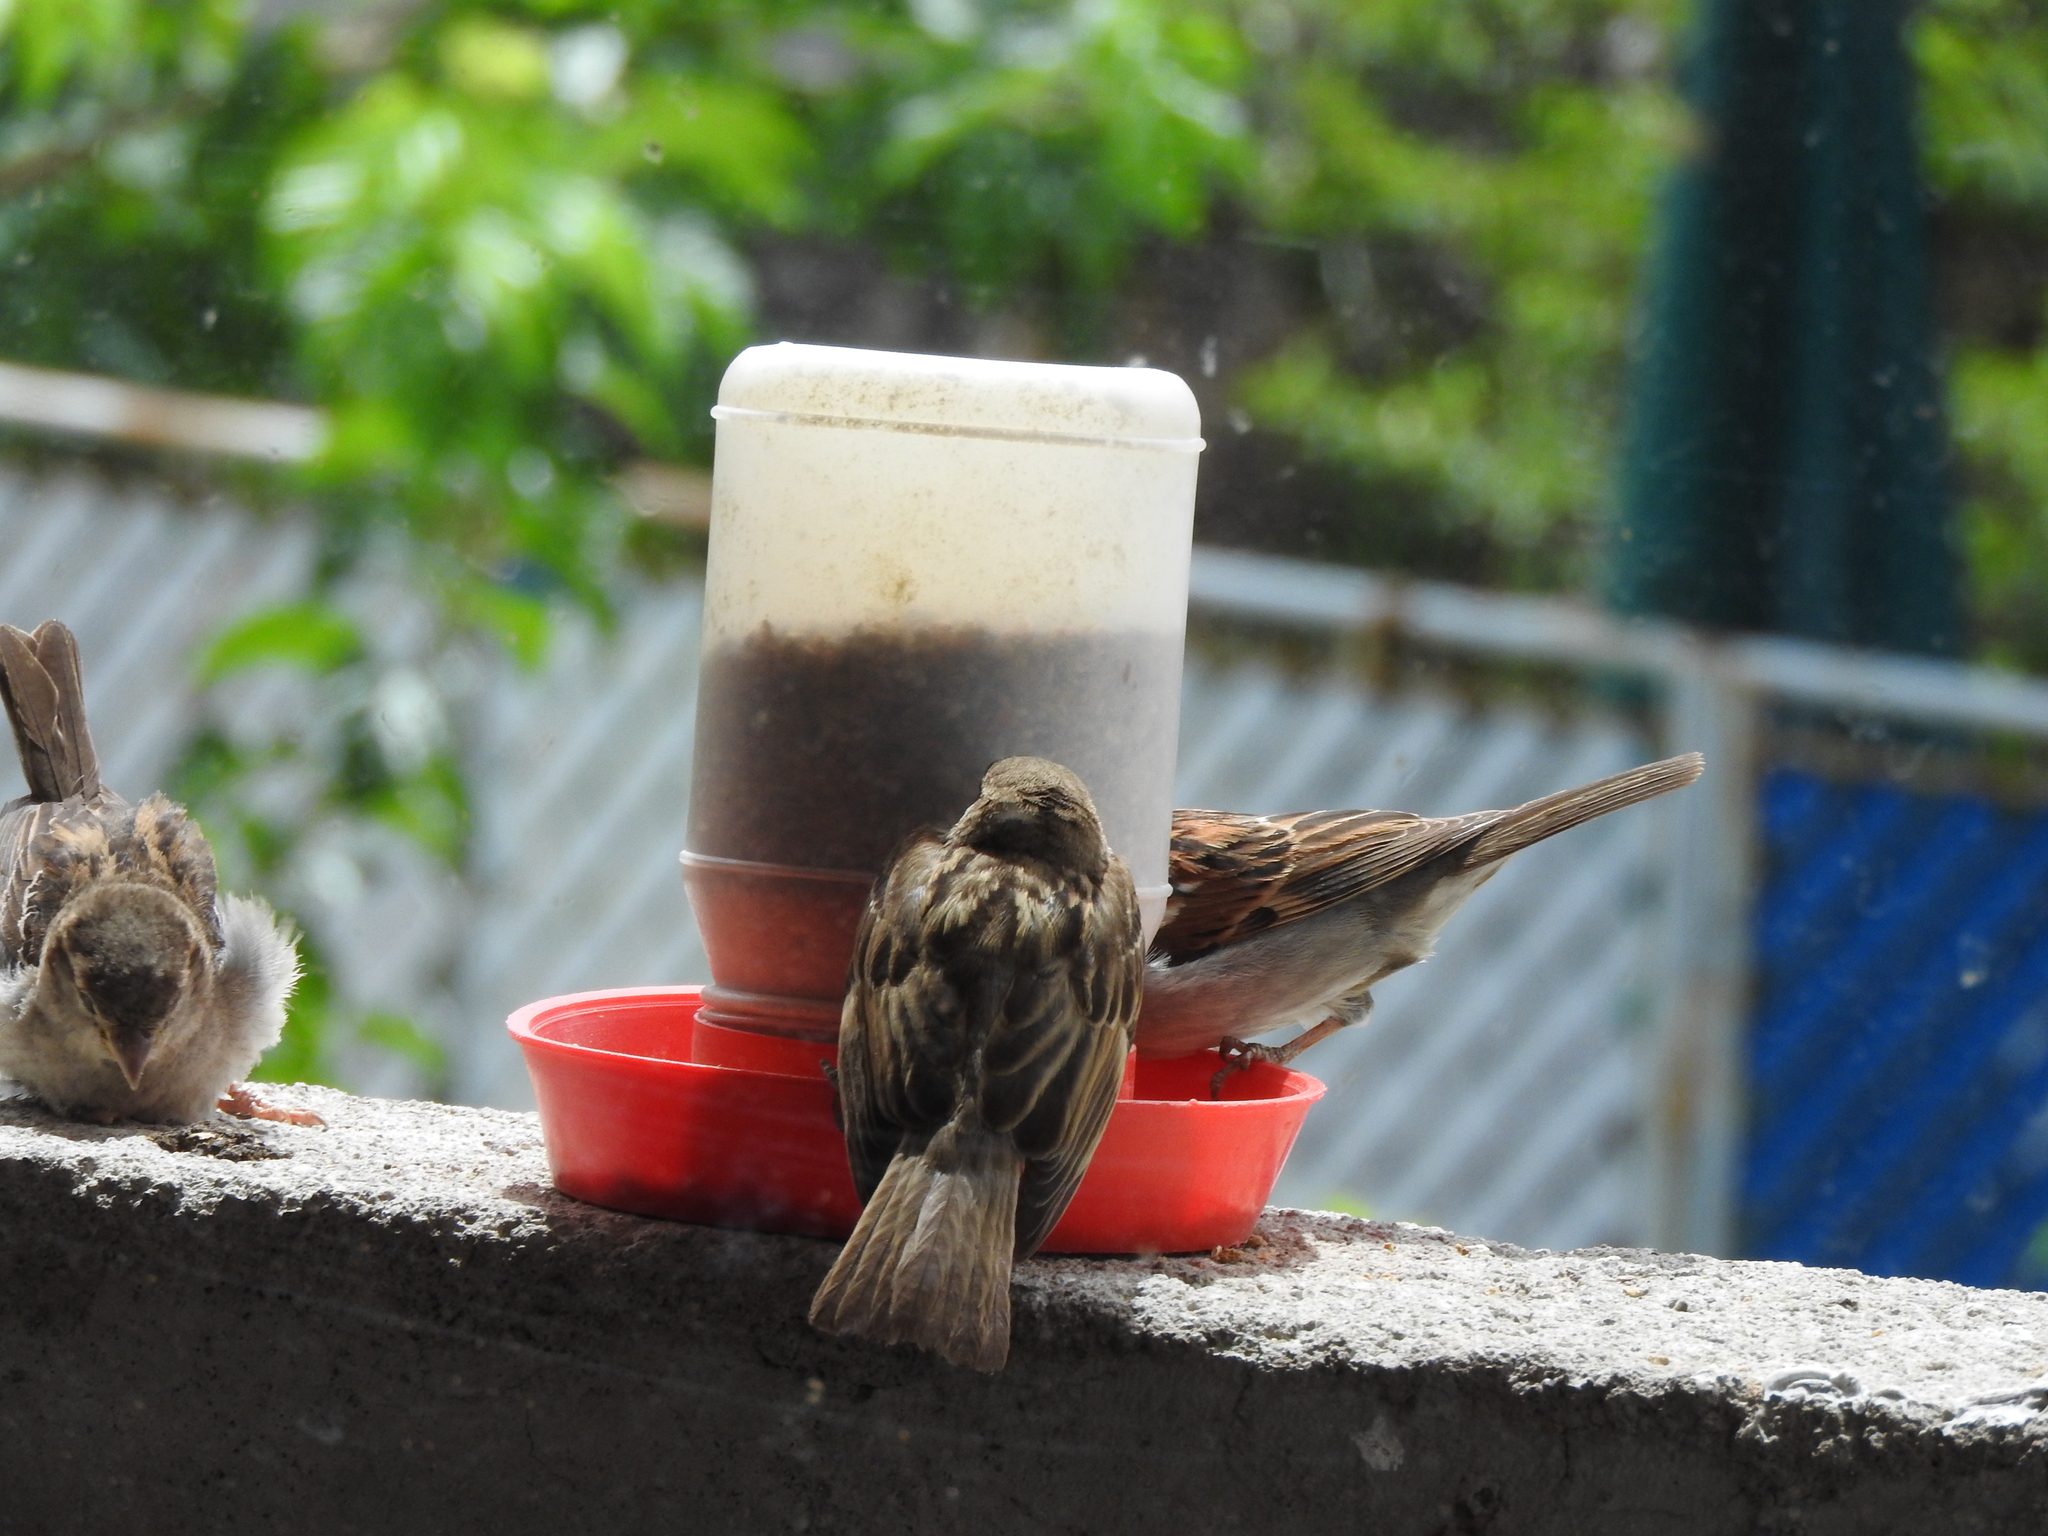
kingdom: Animalia
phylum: Chordata
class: Aves
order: Passeriformes
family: Passeridae
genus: Passer
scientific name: Passer domesticus
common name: House sparrow
